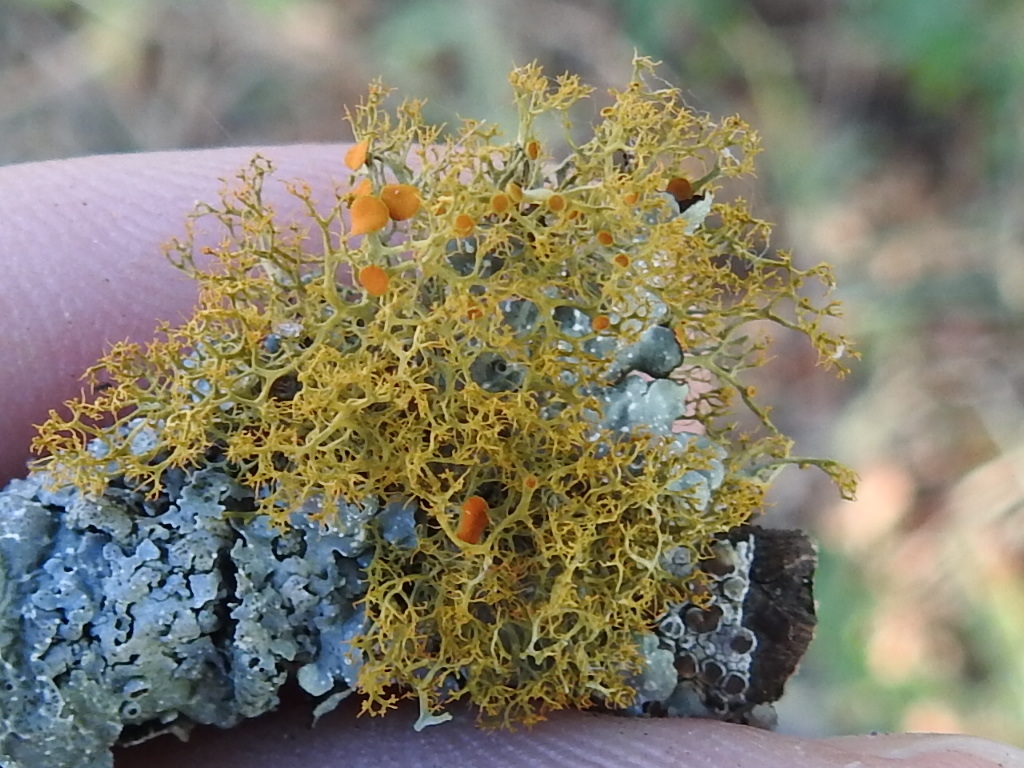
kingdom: Fungi
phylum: Ascomycota
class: Lecanoromycetes
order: Teloschistales
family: Teloschistaceae
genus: Teloschistes
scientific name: Teloschistes exilis
